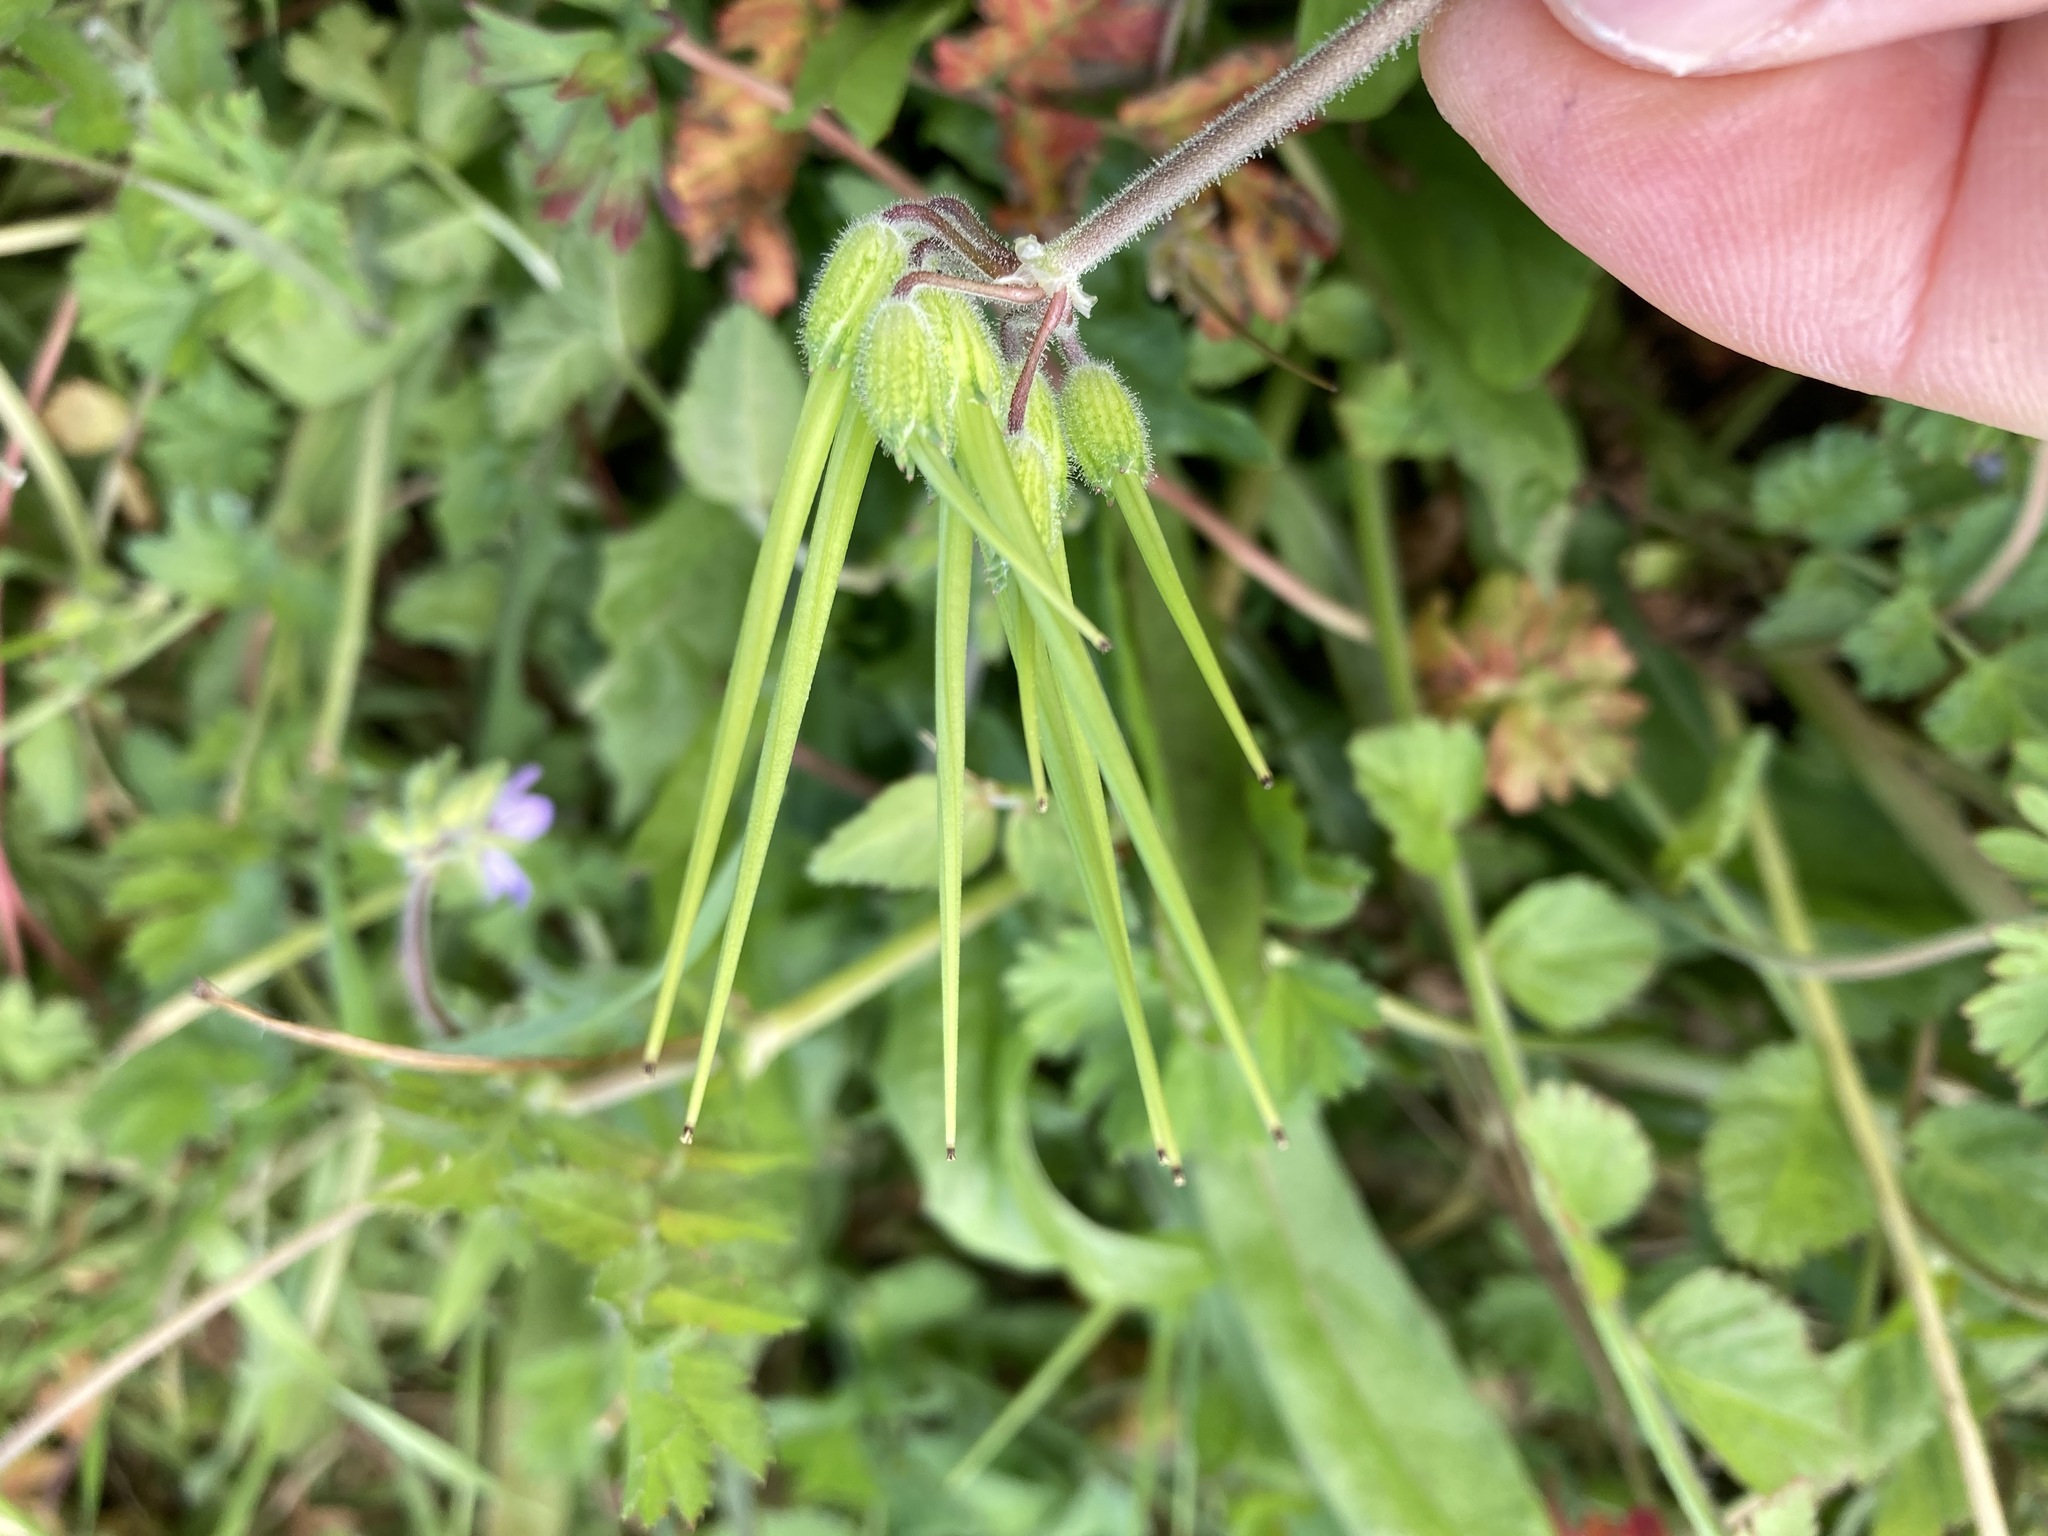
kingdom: Plantae
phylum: Tracheophyta
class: Magnoliopsida
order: Geraniales
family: Geraniaceae
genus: Erodium
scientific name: Erodium moschatum
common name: Musk stork's-bill
